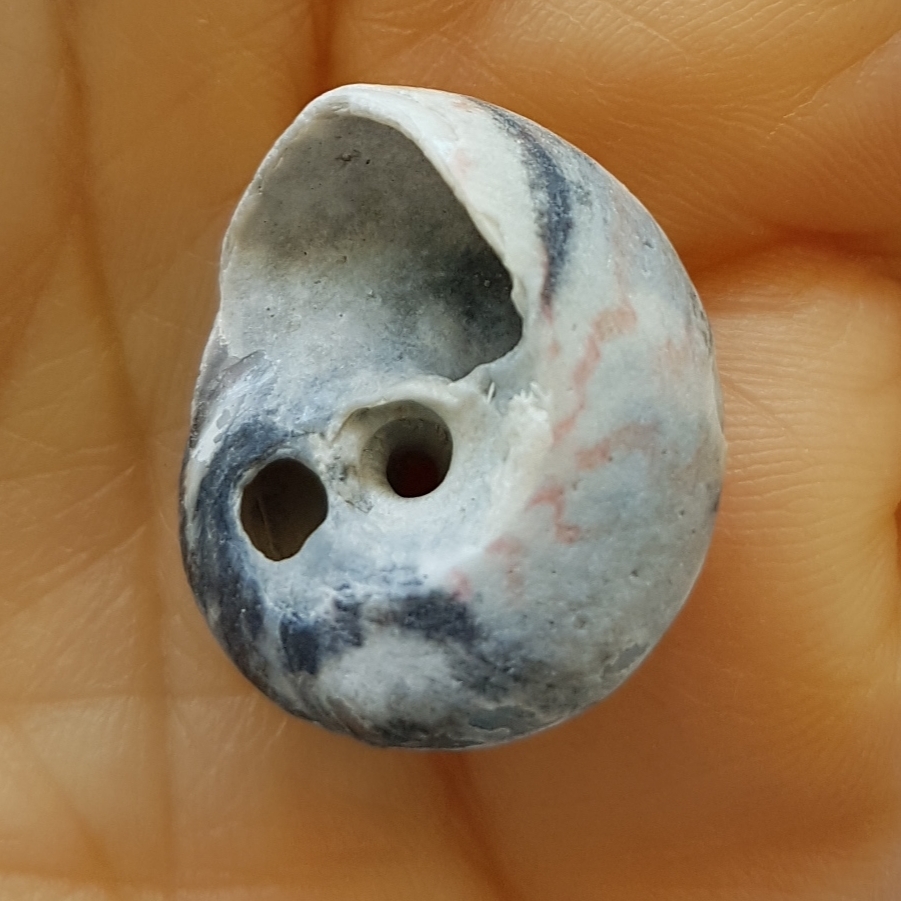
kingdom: Animalia
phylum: Mollusca
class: Gastropoda
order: Trochida
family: Trochidae
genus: Gibbula
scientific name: Gibbula magus
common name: Turban top shell
